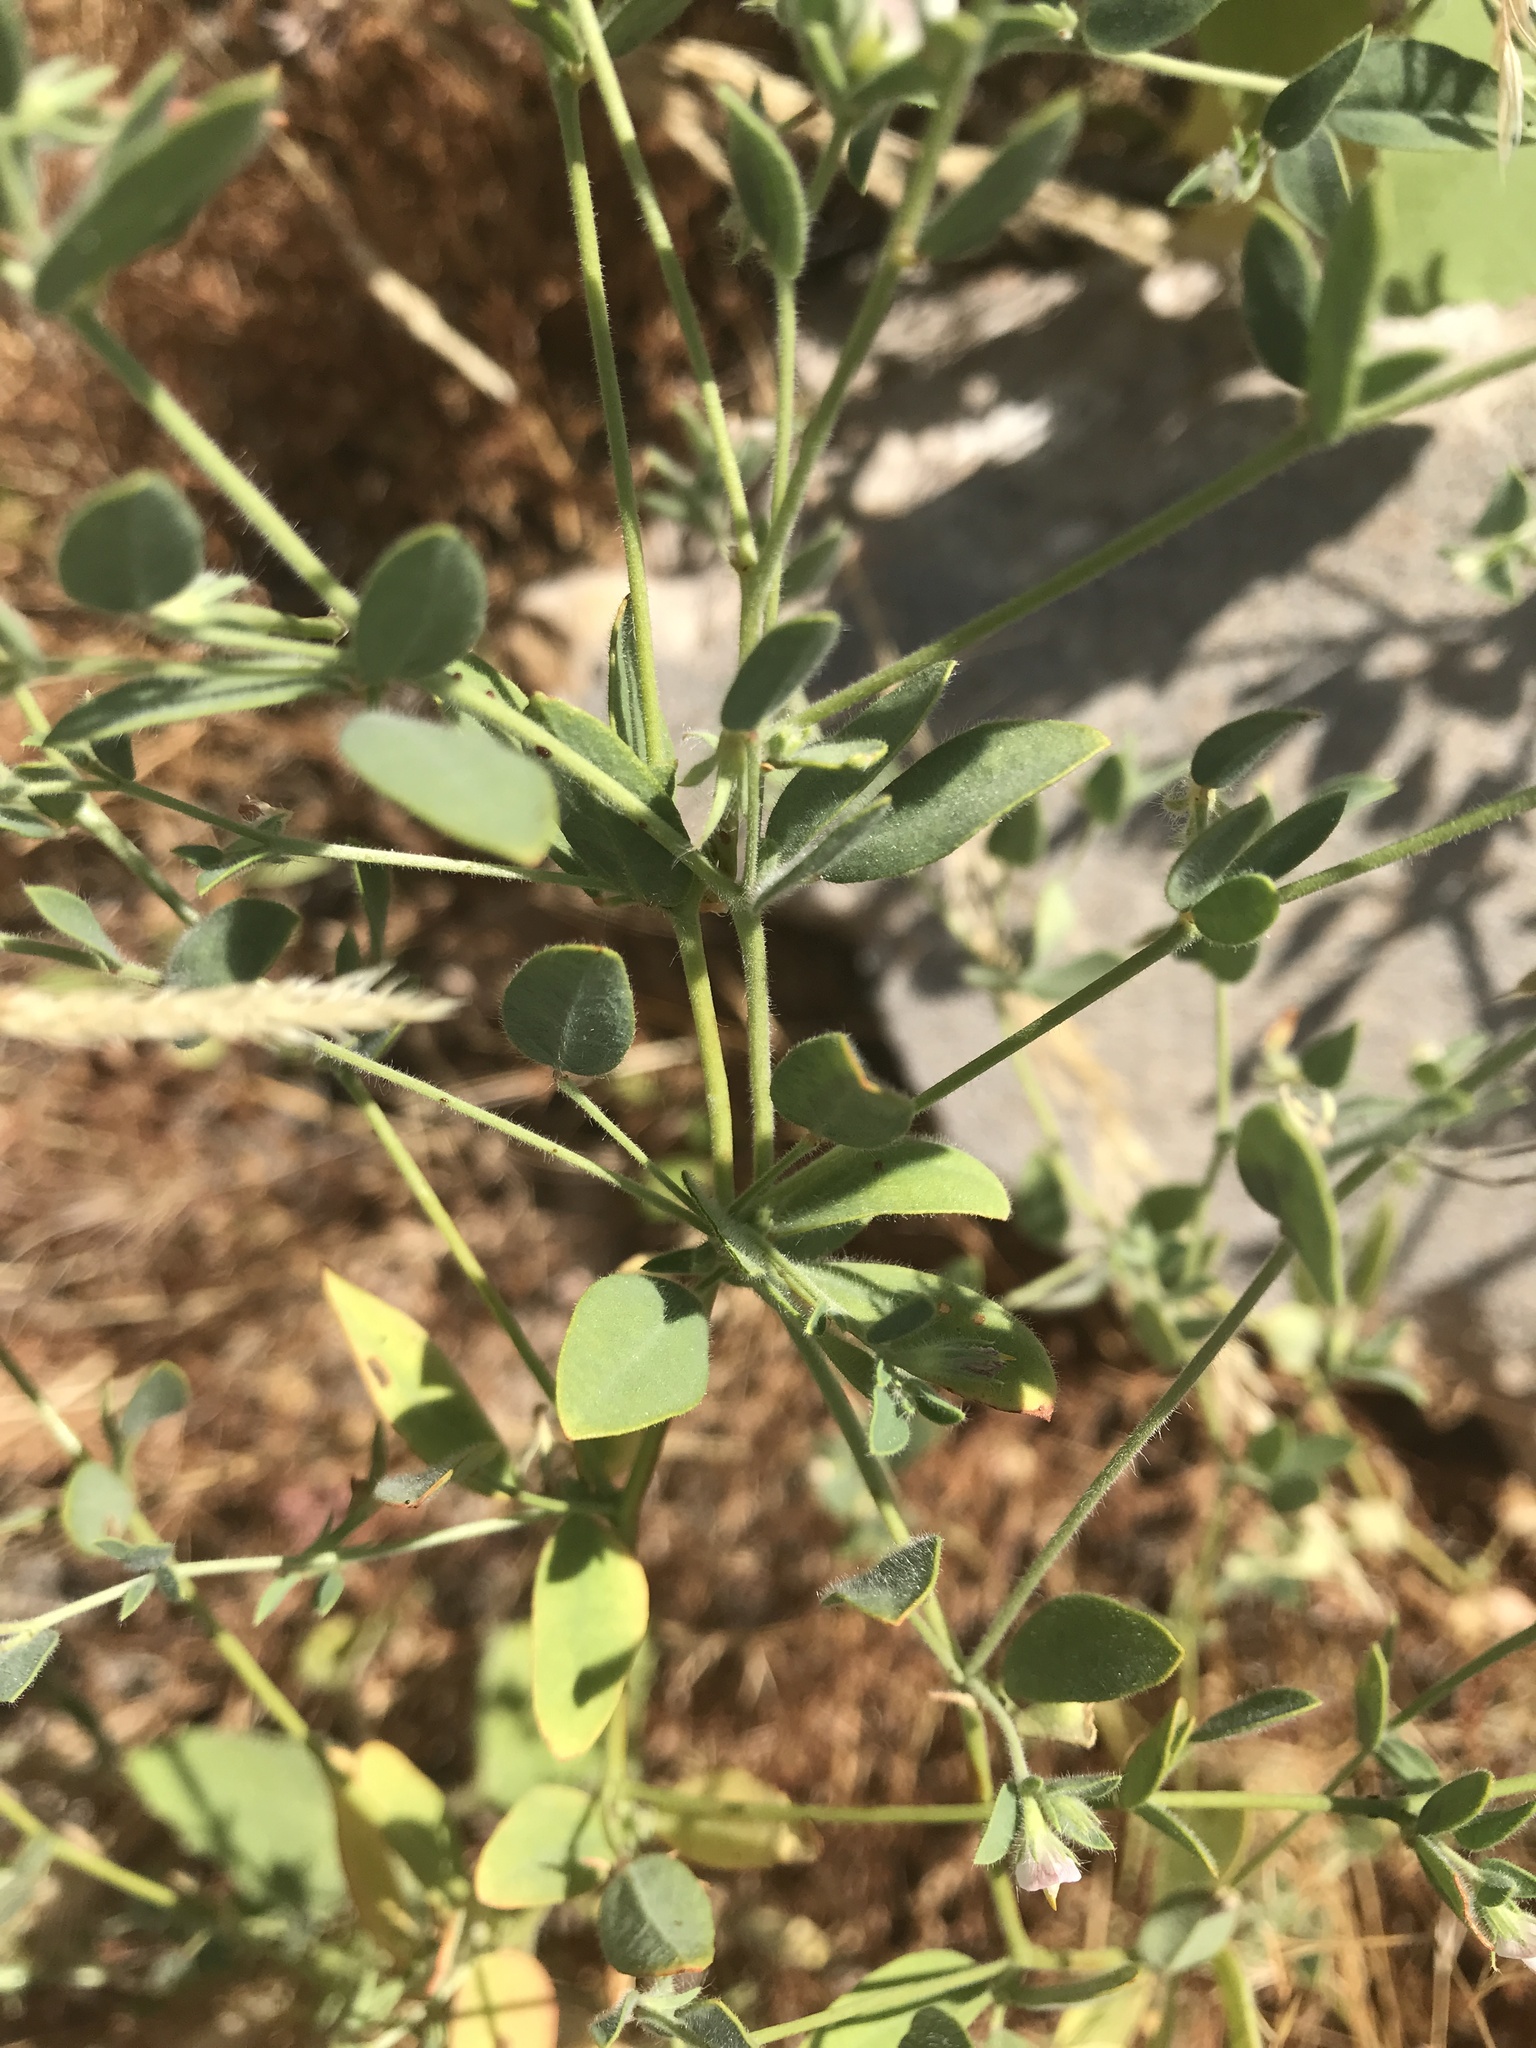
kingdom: Plantae
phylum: Tracheophyta
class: Magnoliopsida
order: Fabales
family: Fabaceae
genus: Acmispon
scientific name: Acmispon americanus
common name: American bird's-foot trefoil
